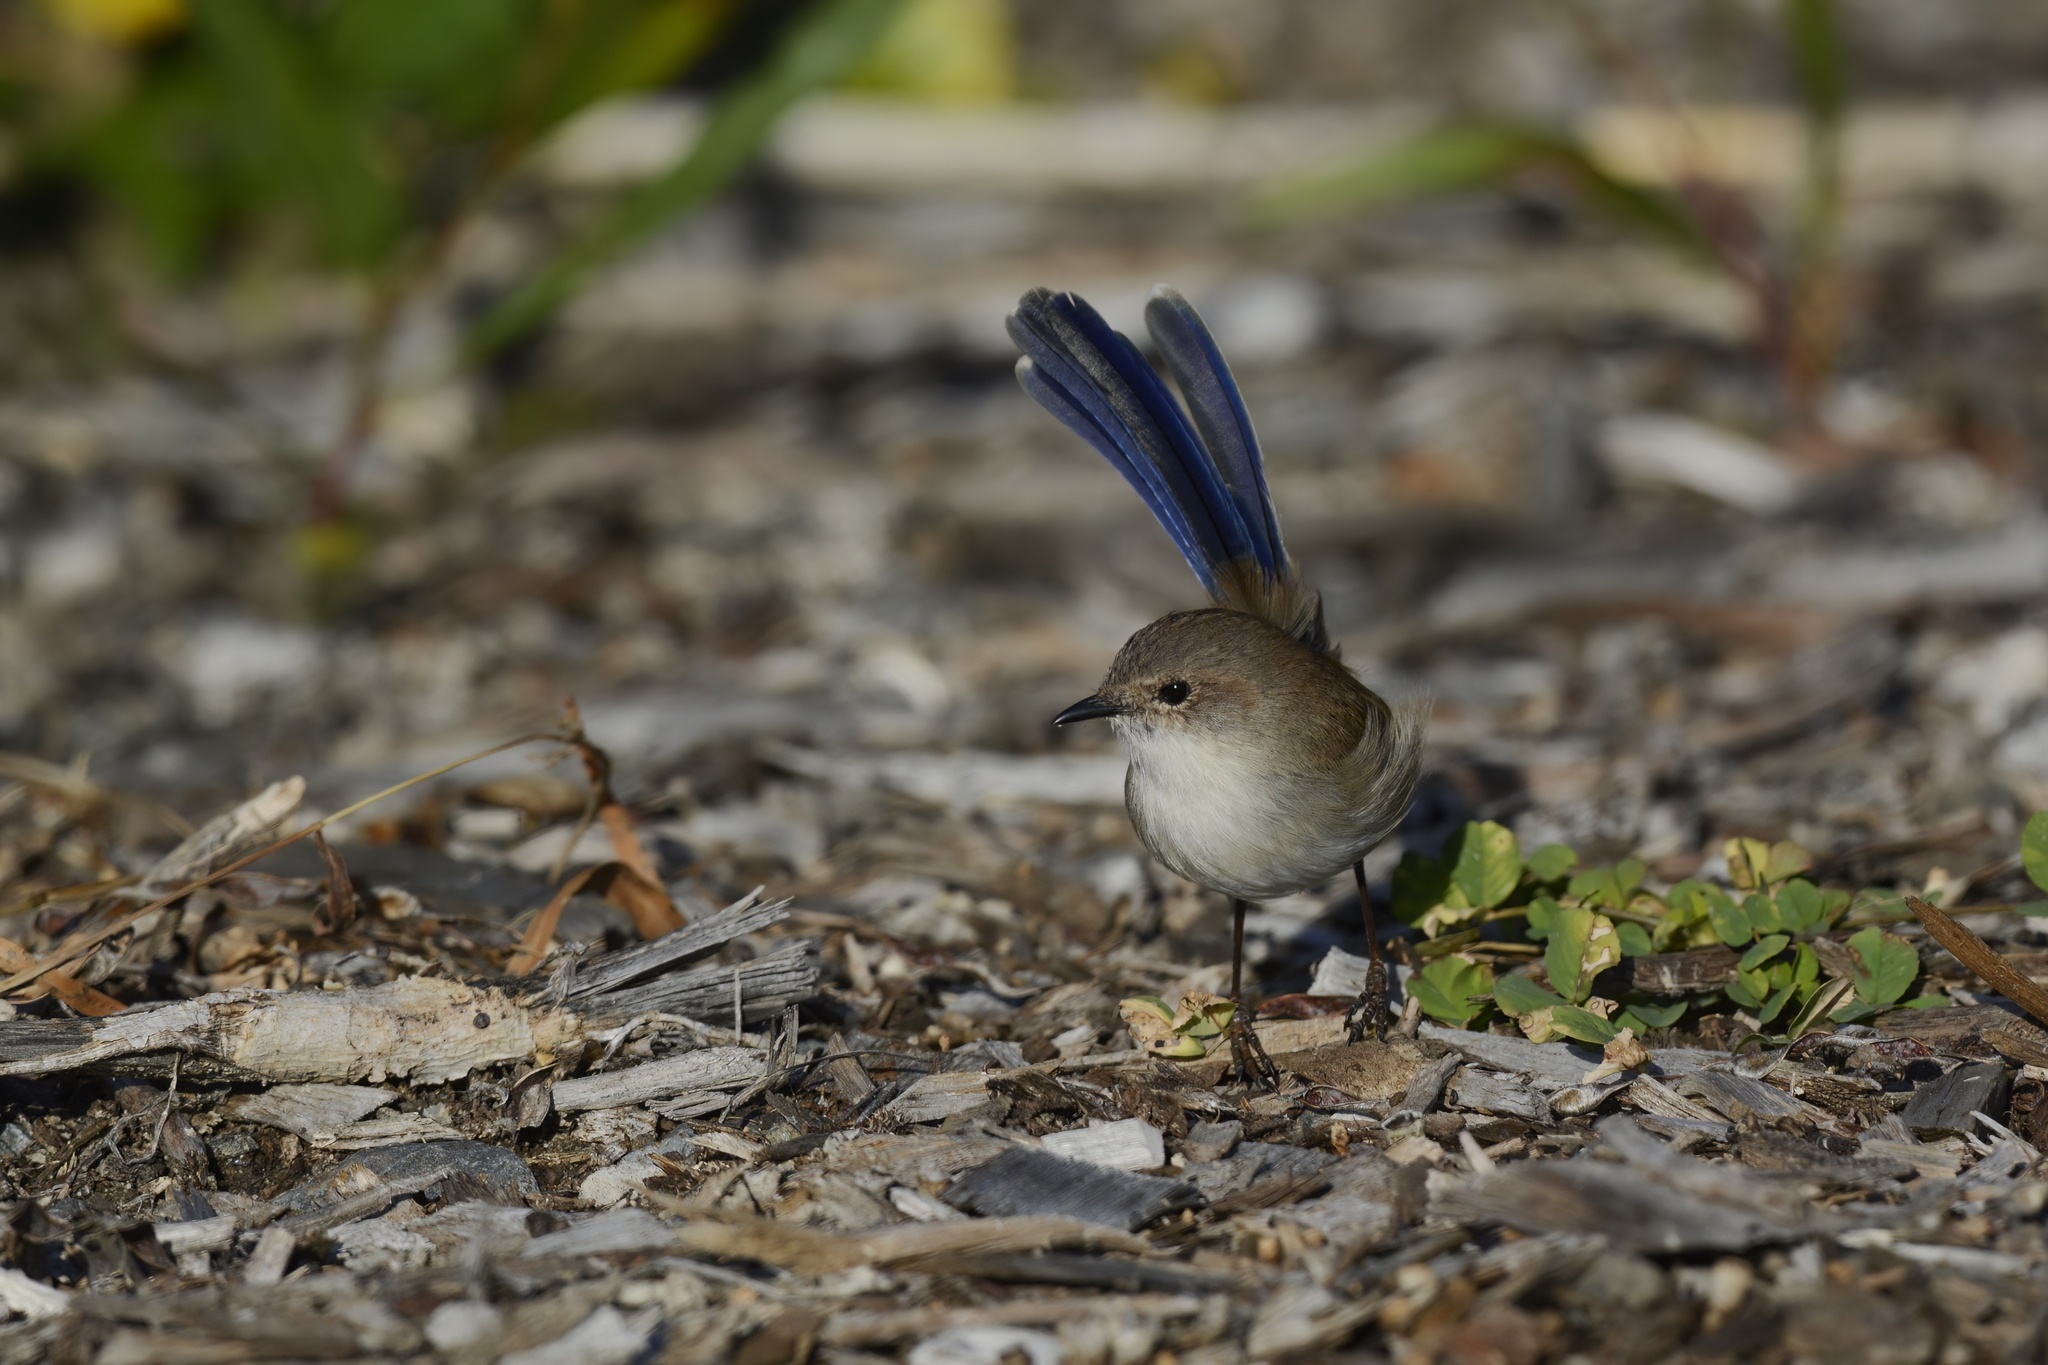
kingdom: Animalia
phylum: Chordata
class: Aves
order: Passeriformes
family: Maluridae
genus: Malurus
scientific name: Malurus cyaneus
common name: Superb fairywren
